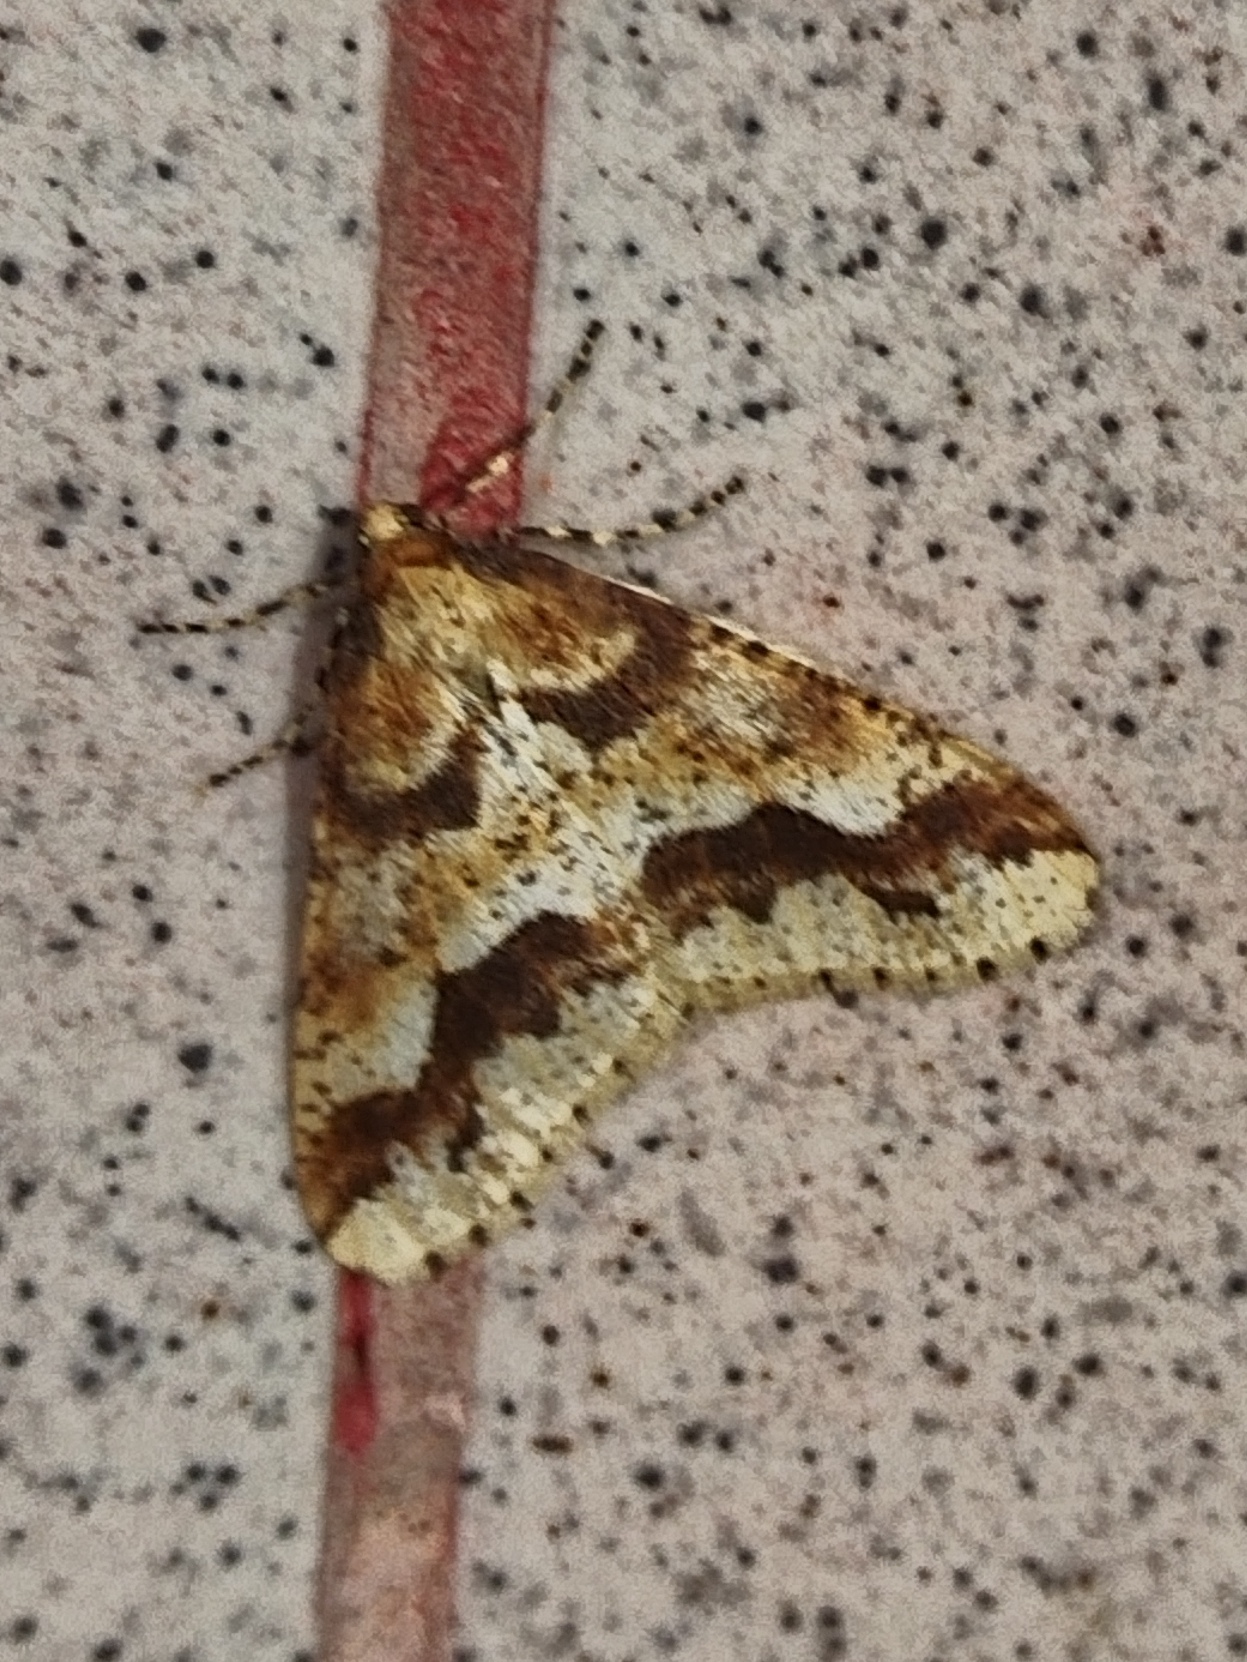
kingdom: Animalia
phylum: Arthropoda
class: Insecta
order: Lepidoptera
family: Geometridae
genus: Erannis
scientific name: Erannis defoliaria
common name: Mottled umber
